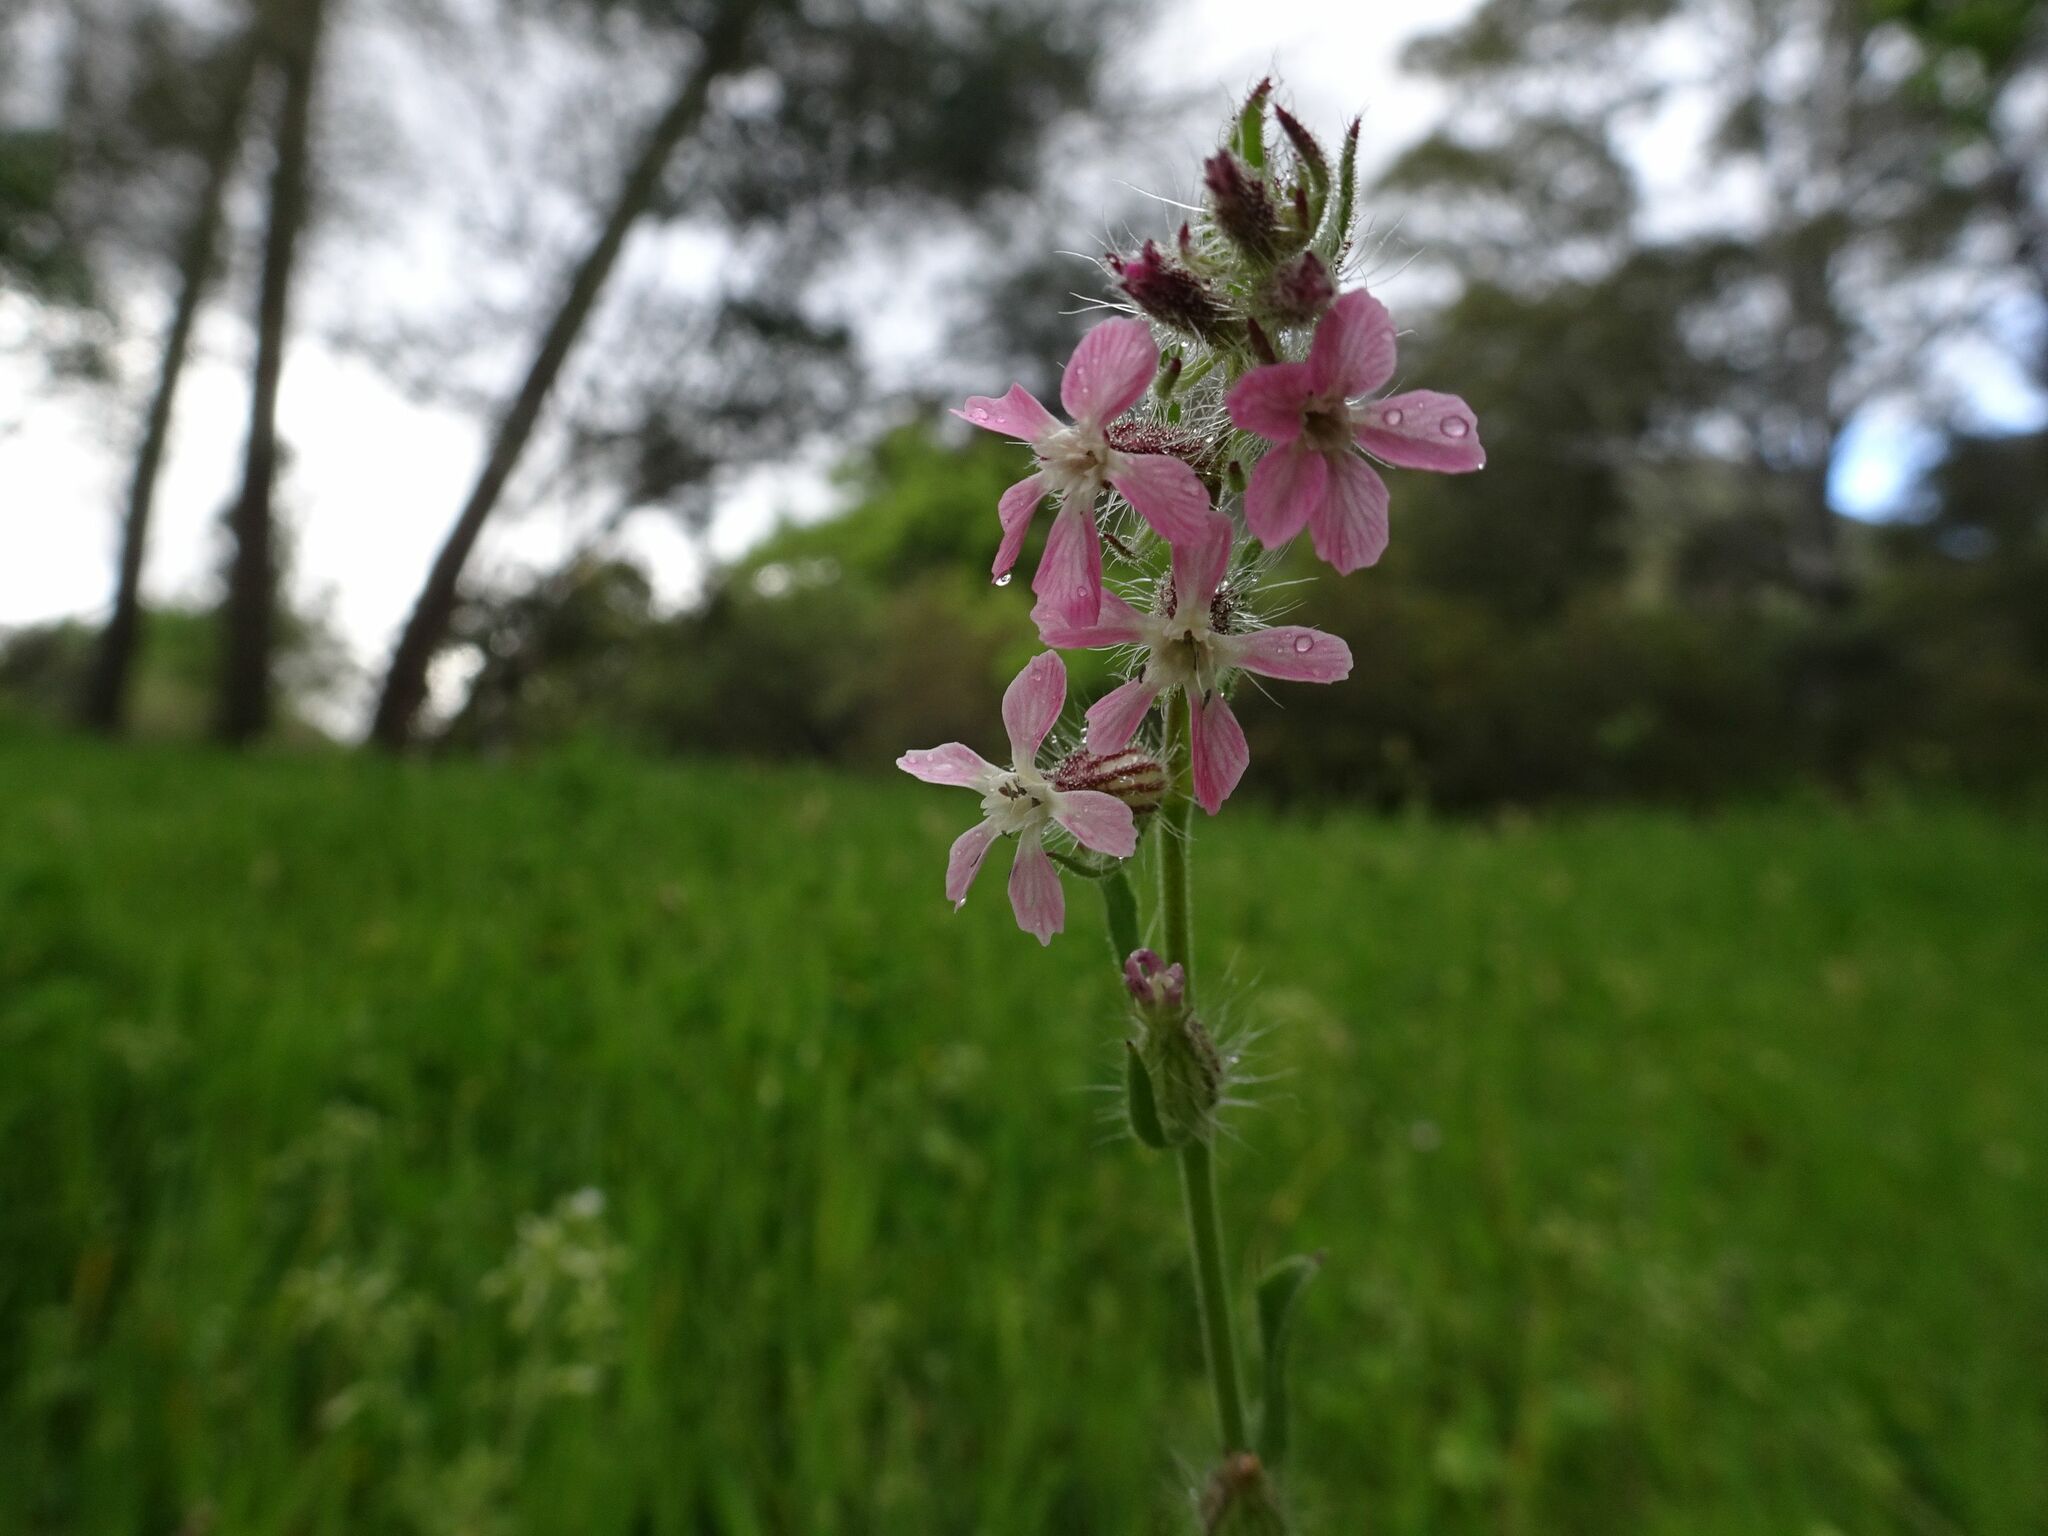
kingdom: Plantae
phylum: Tracheophyta
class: Magnoliopsida
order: Caryophyllales
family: Caryophyllaceae
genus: Silene
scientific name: Silene gallica
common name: Small-flowered catchfly
